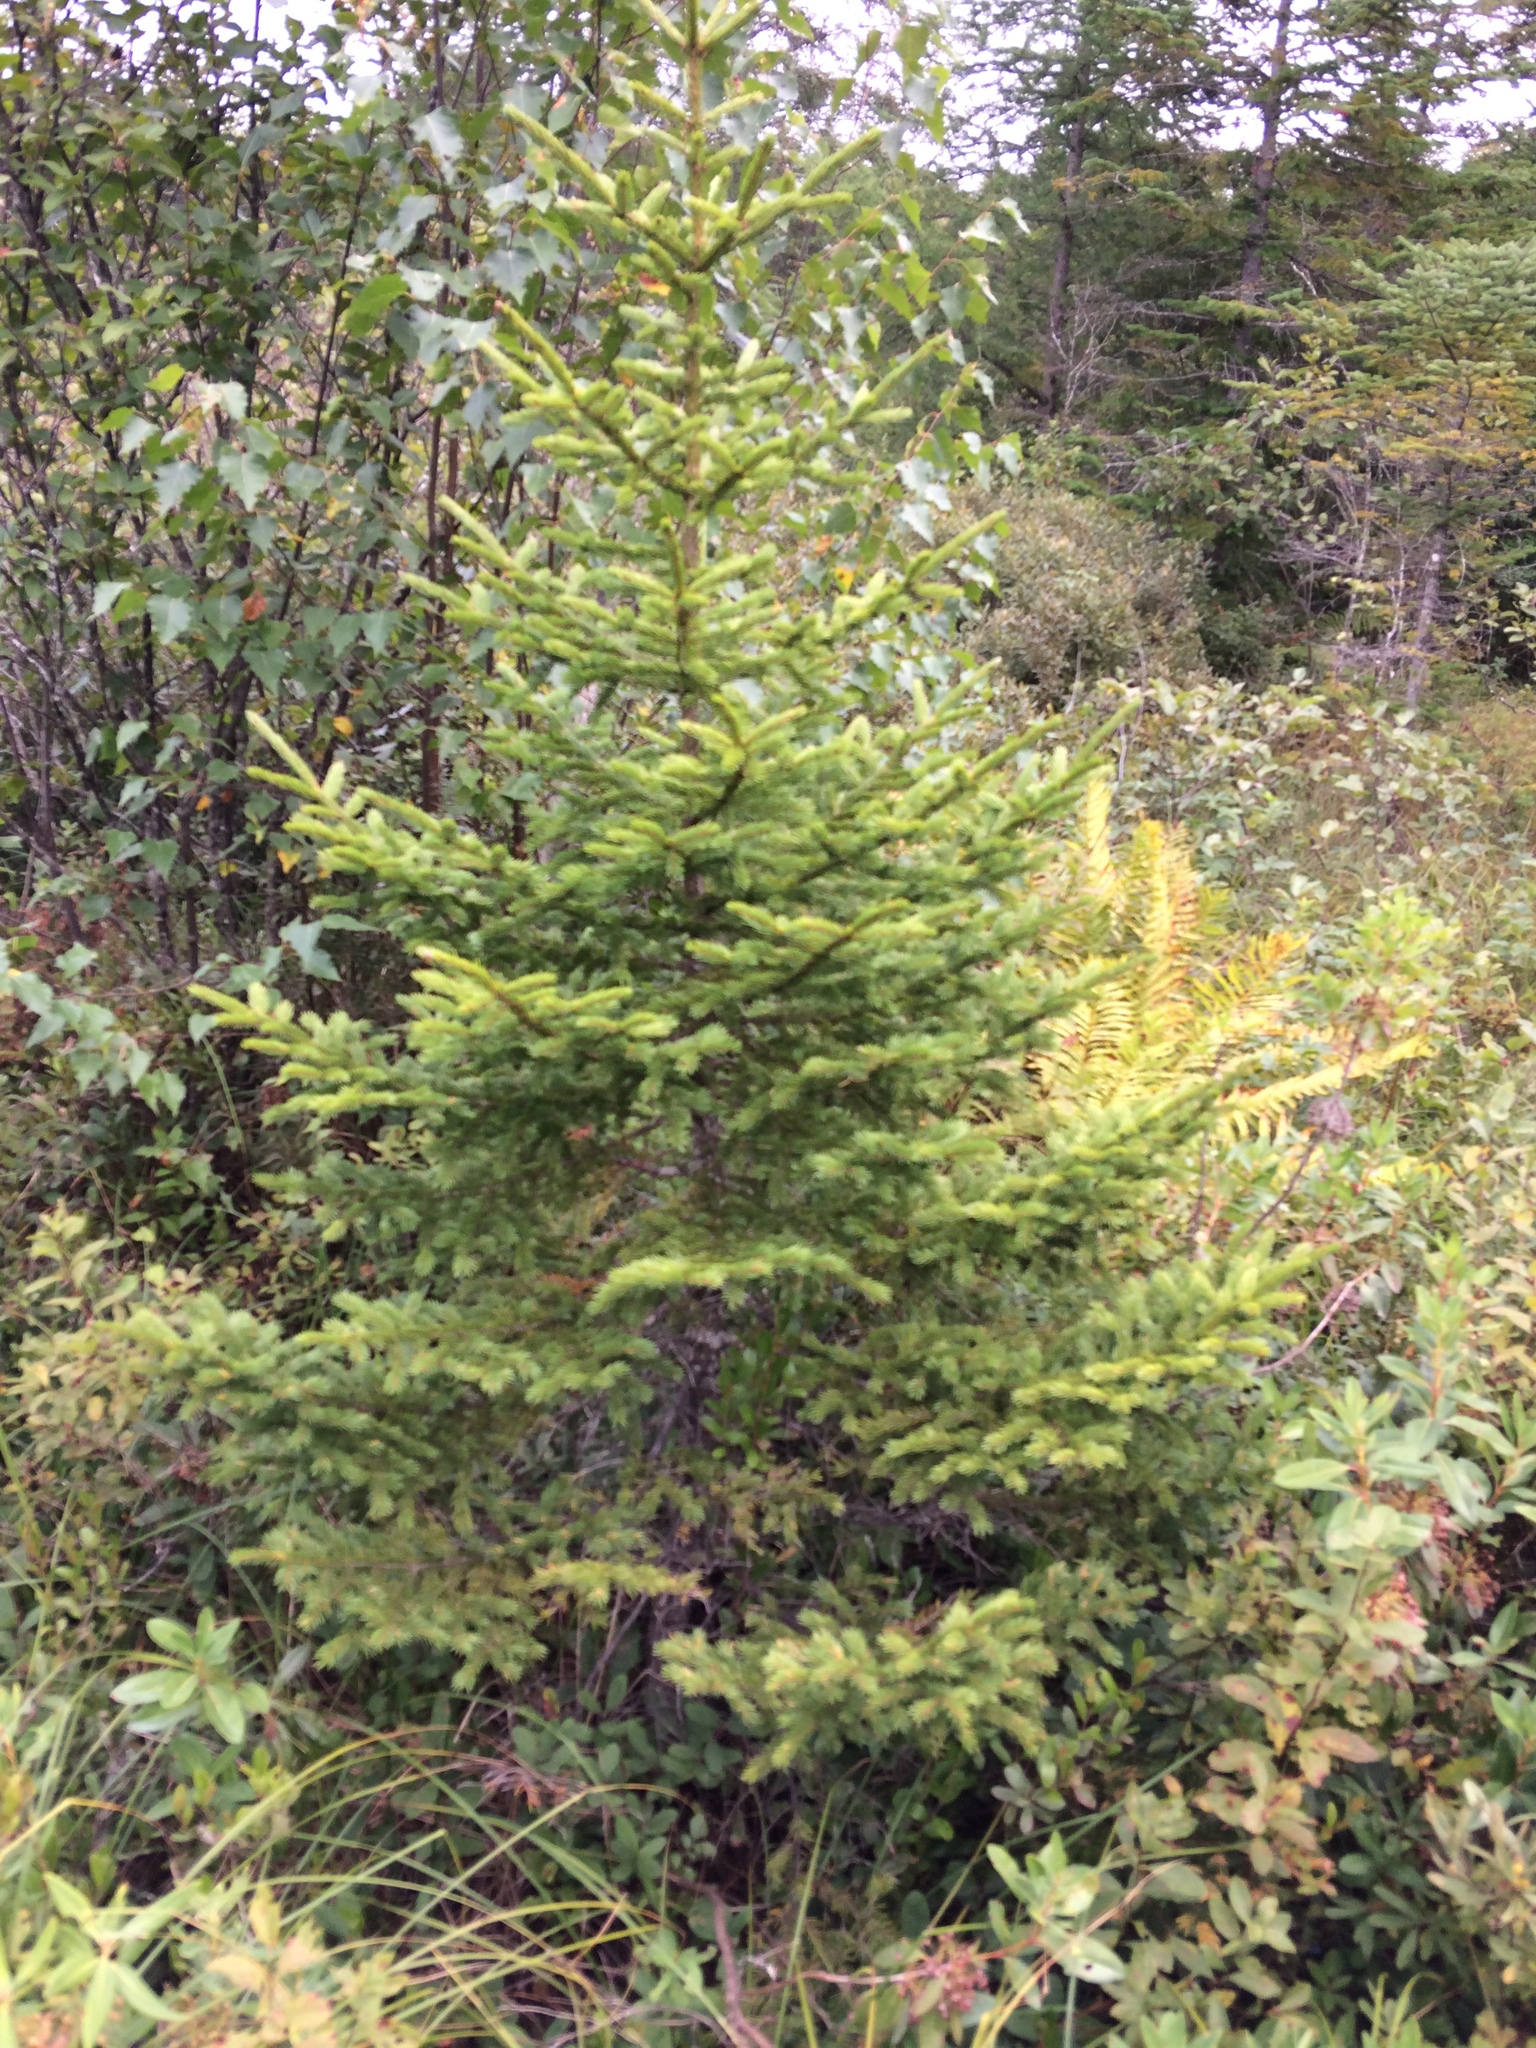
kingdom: Plantae
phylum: Tracheophyta
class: Pinopsida
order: Pinales
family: Pinaceae
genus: Picea
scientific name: Picea rubens
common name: Red spruce
